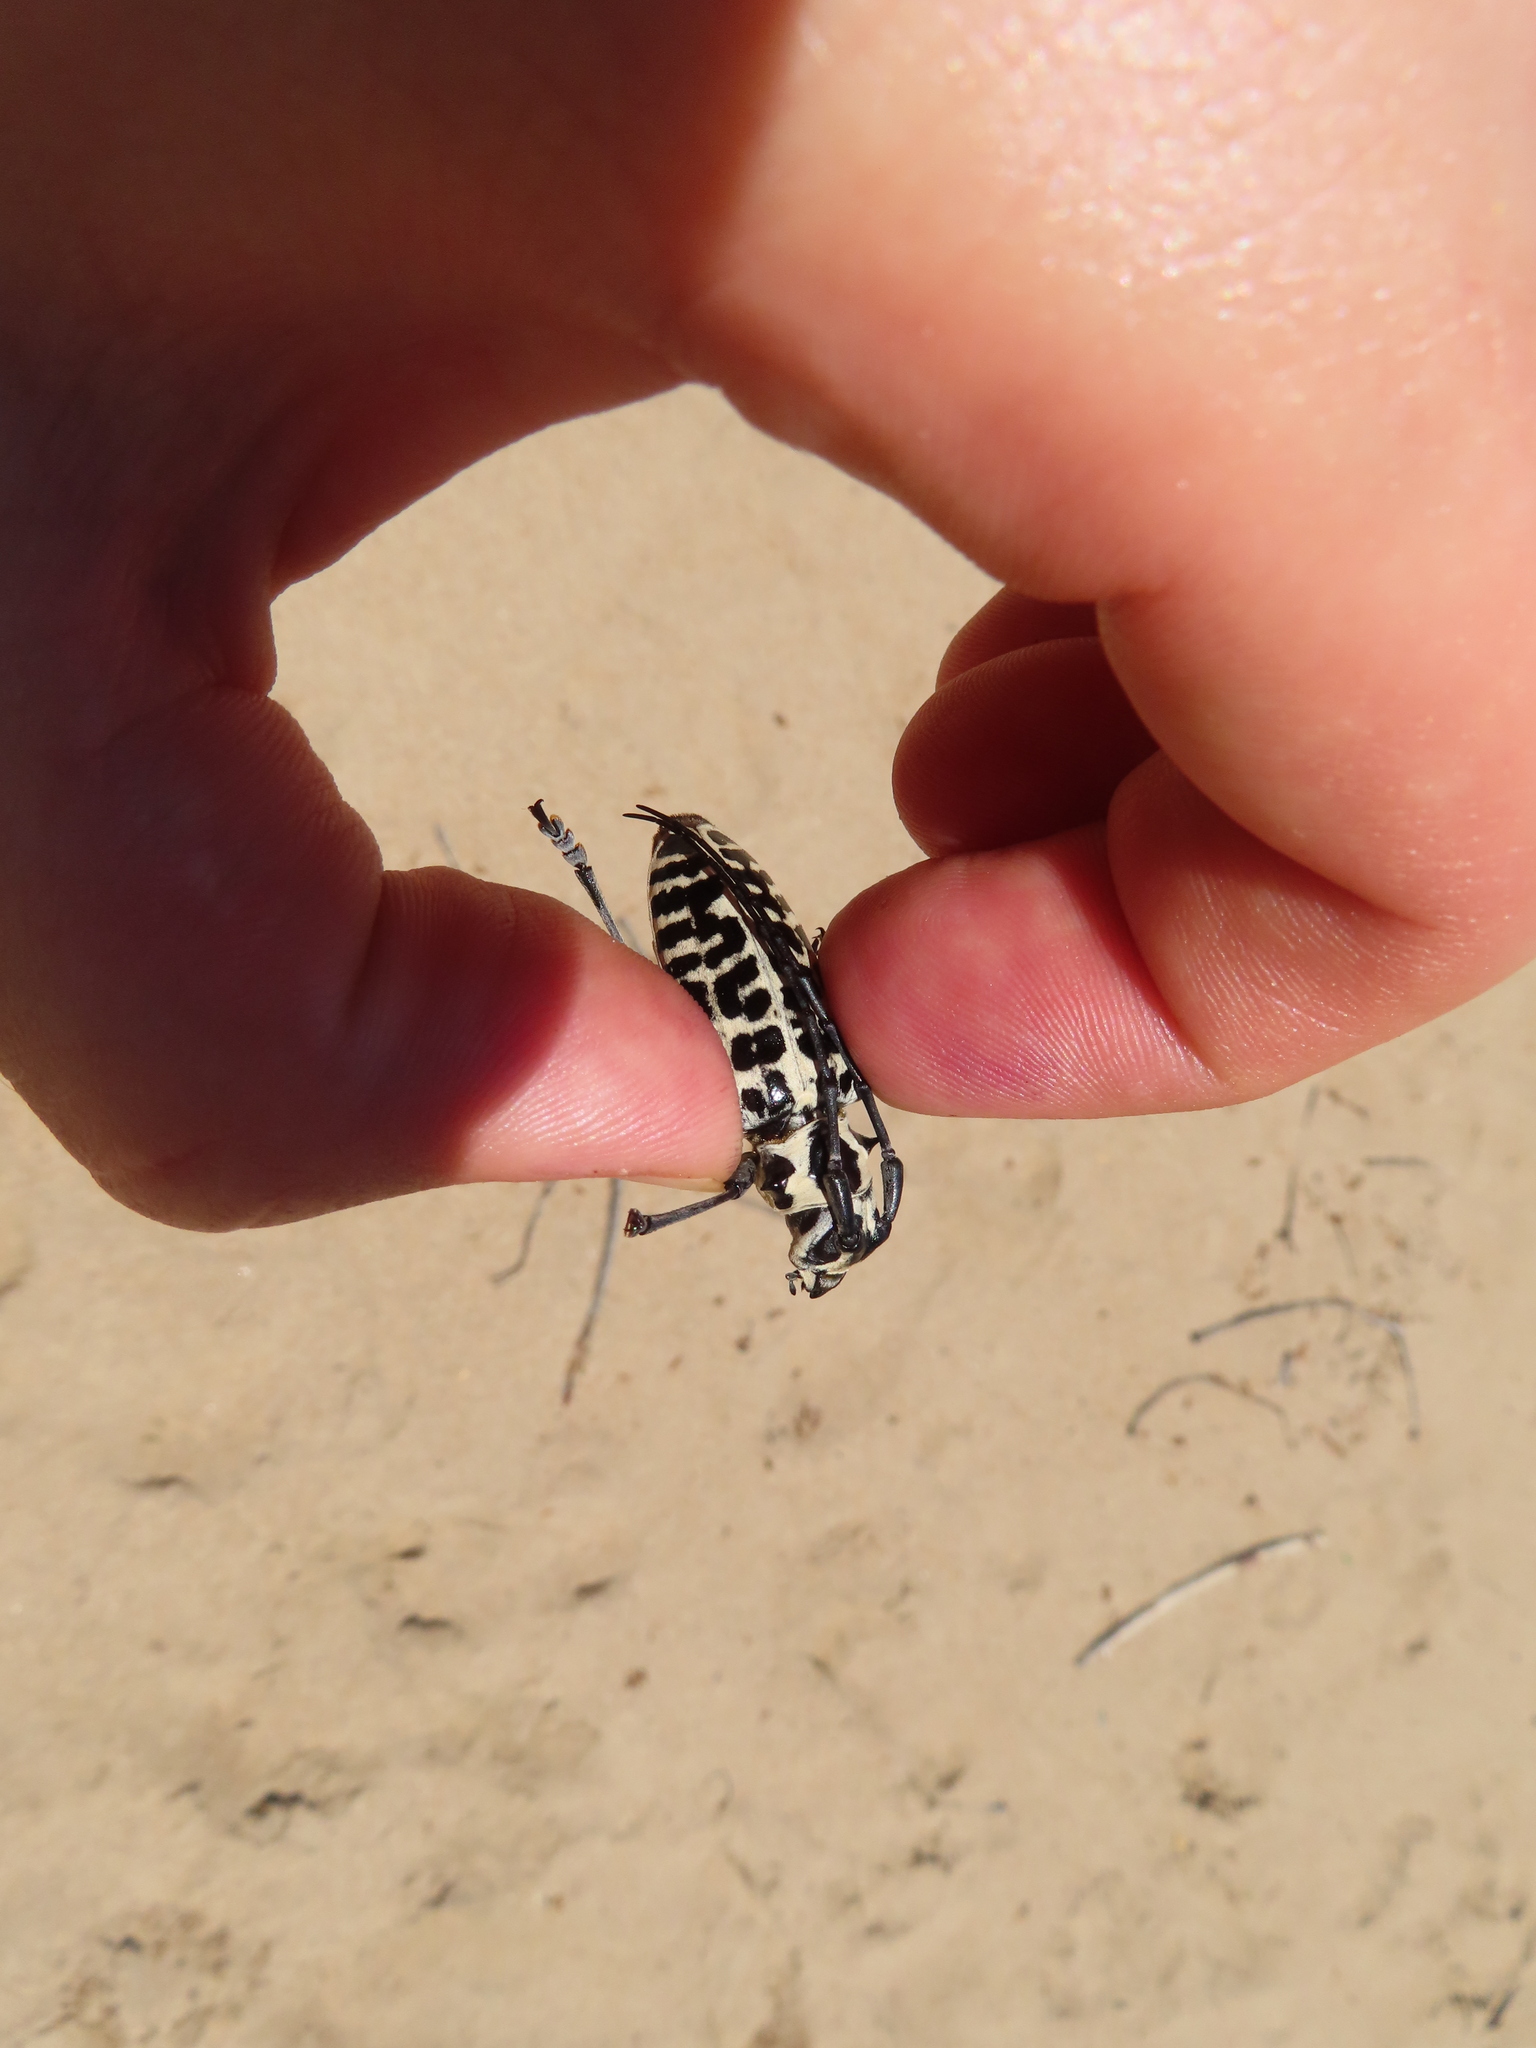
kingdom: Animalia
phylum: Arthropoda
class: Insecta
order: Coleoptera
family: Cerambycidae
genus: Plectrodera
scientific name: Plectrodera scalator
